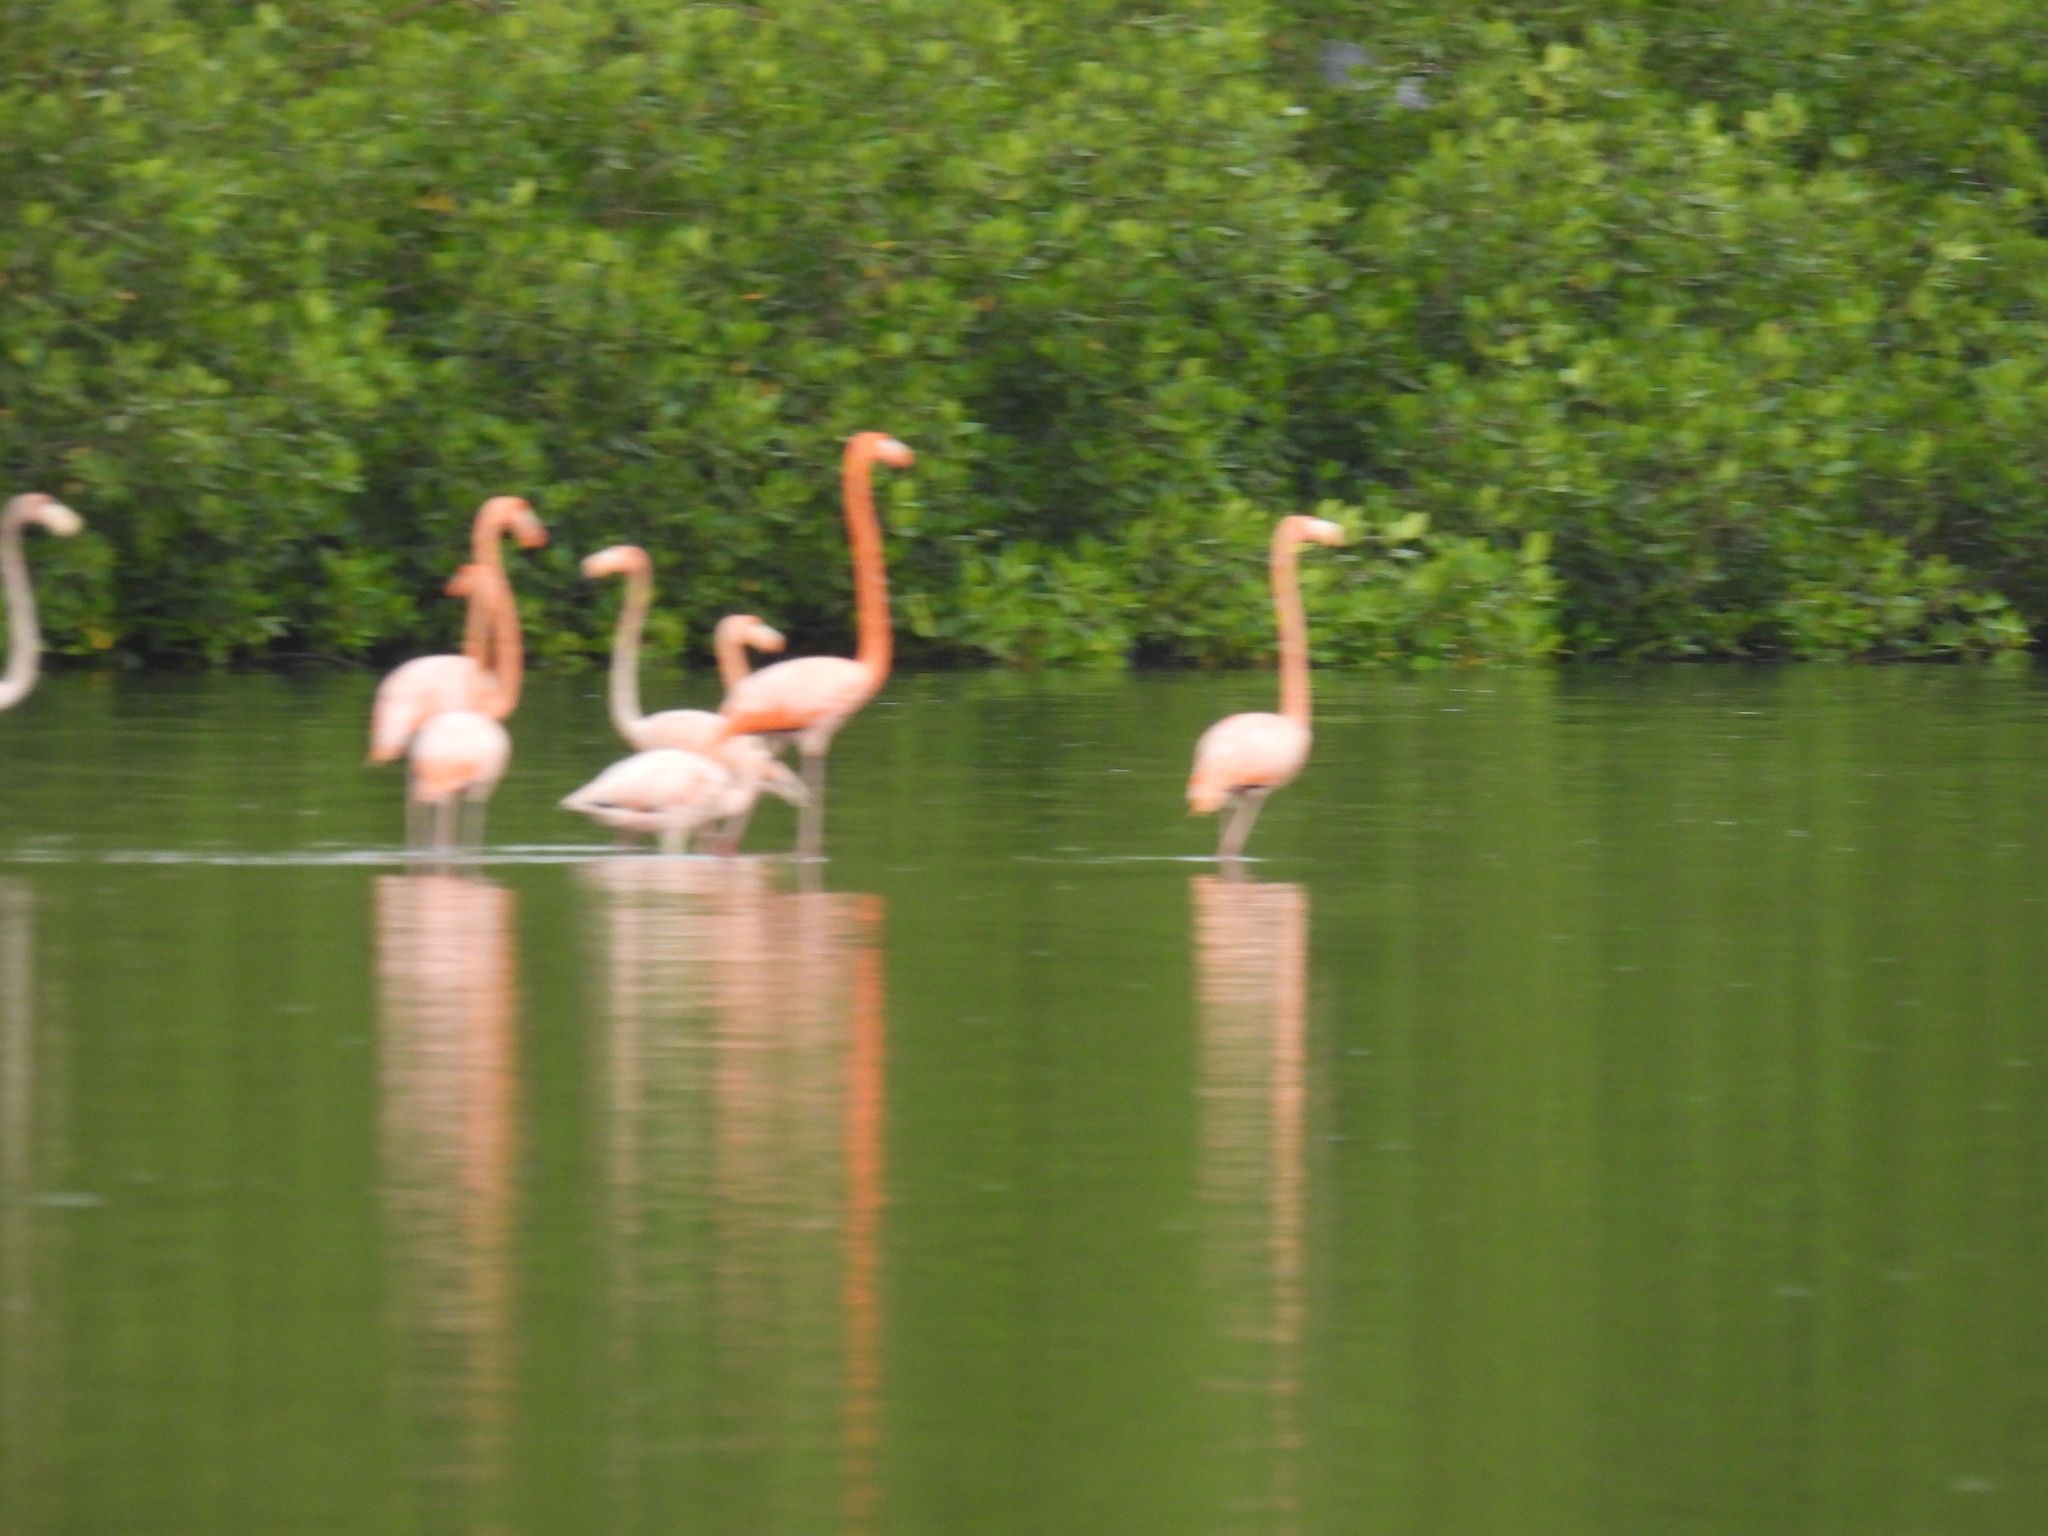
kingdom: Animalia
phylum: Chordata
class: Aves
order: Phoenicopteriformes
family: Phoenicopteridae
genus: Phoenicopterus
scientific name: Phoenicopterus ruber
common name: American flamingo
